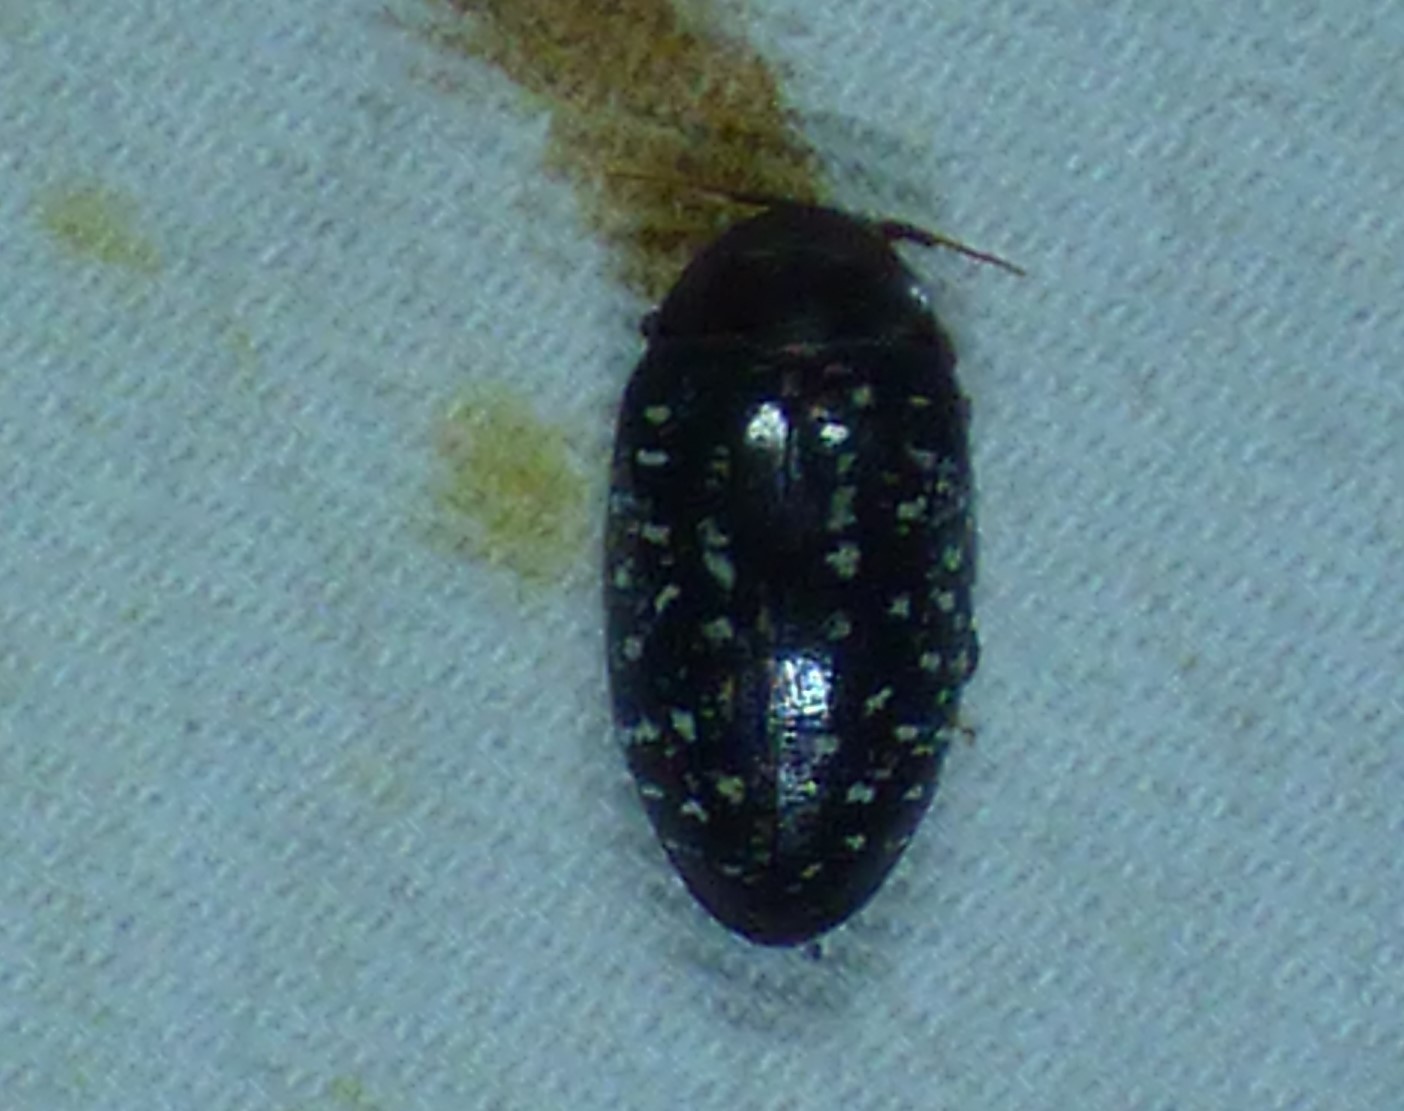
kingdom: Animalia
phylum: Arthropoda
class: Insecta
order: Coleoptera
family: Chelonariidae
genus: Chelonarium
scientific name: Chelonarium lecontei
